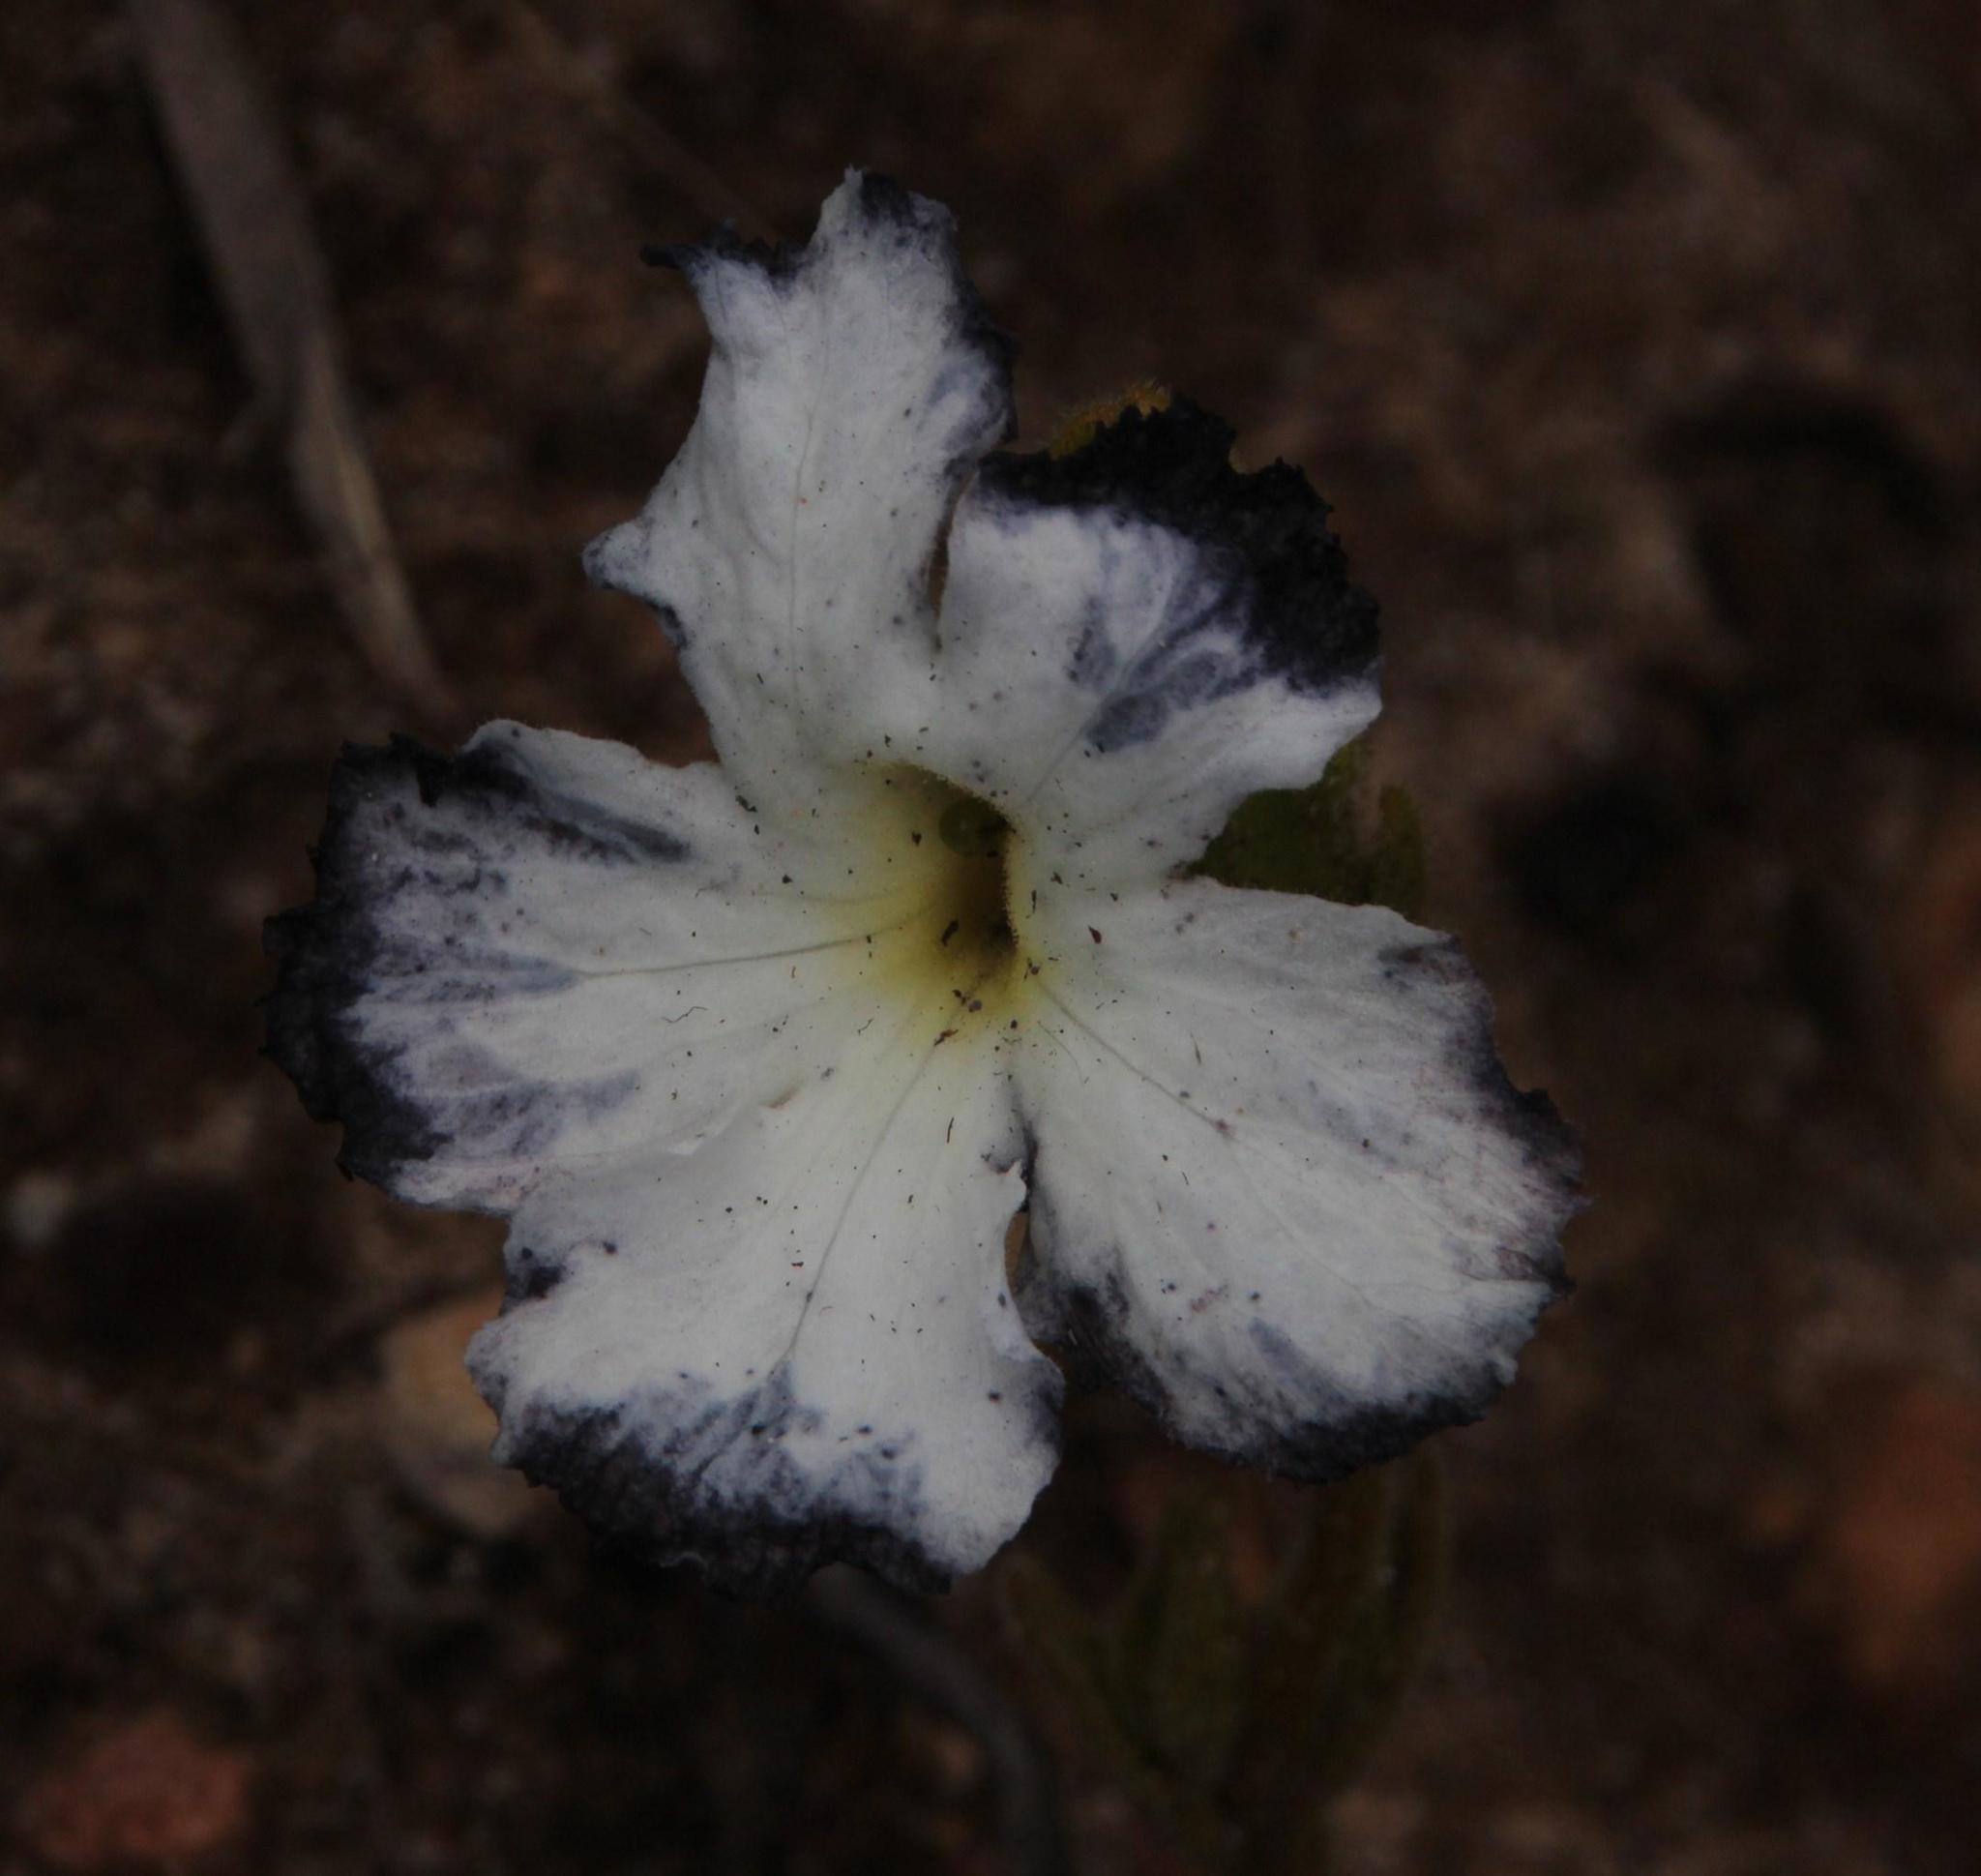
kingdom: Plantae
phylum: Tracheophyta
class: Magnoliopsida
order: Lamiales
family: Orobanchaceae
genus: Harveya
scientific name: Harveya capensis
